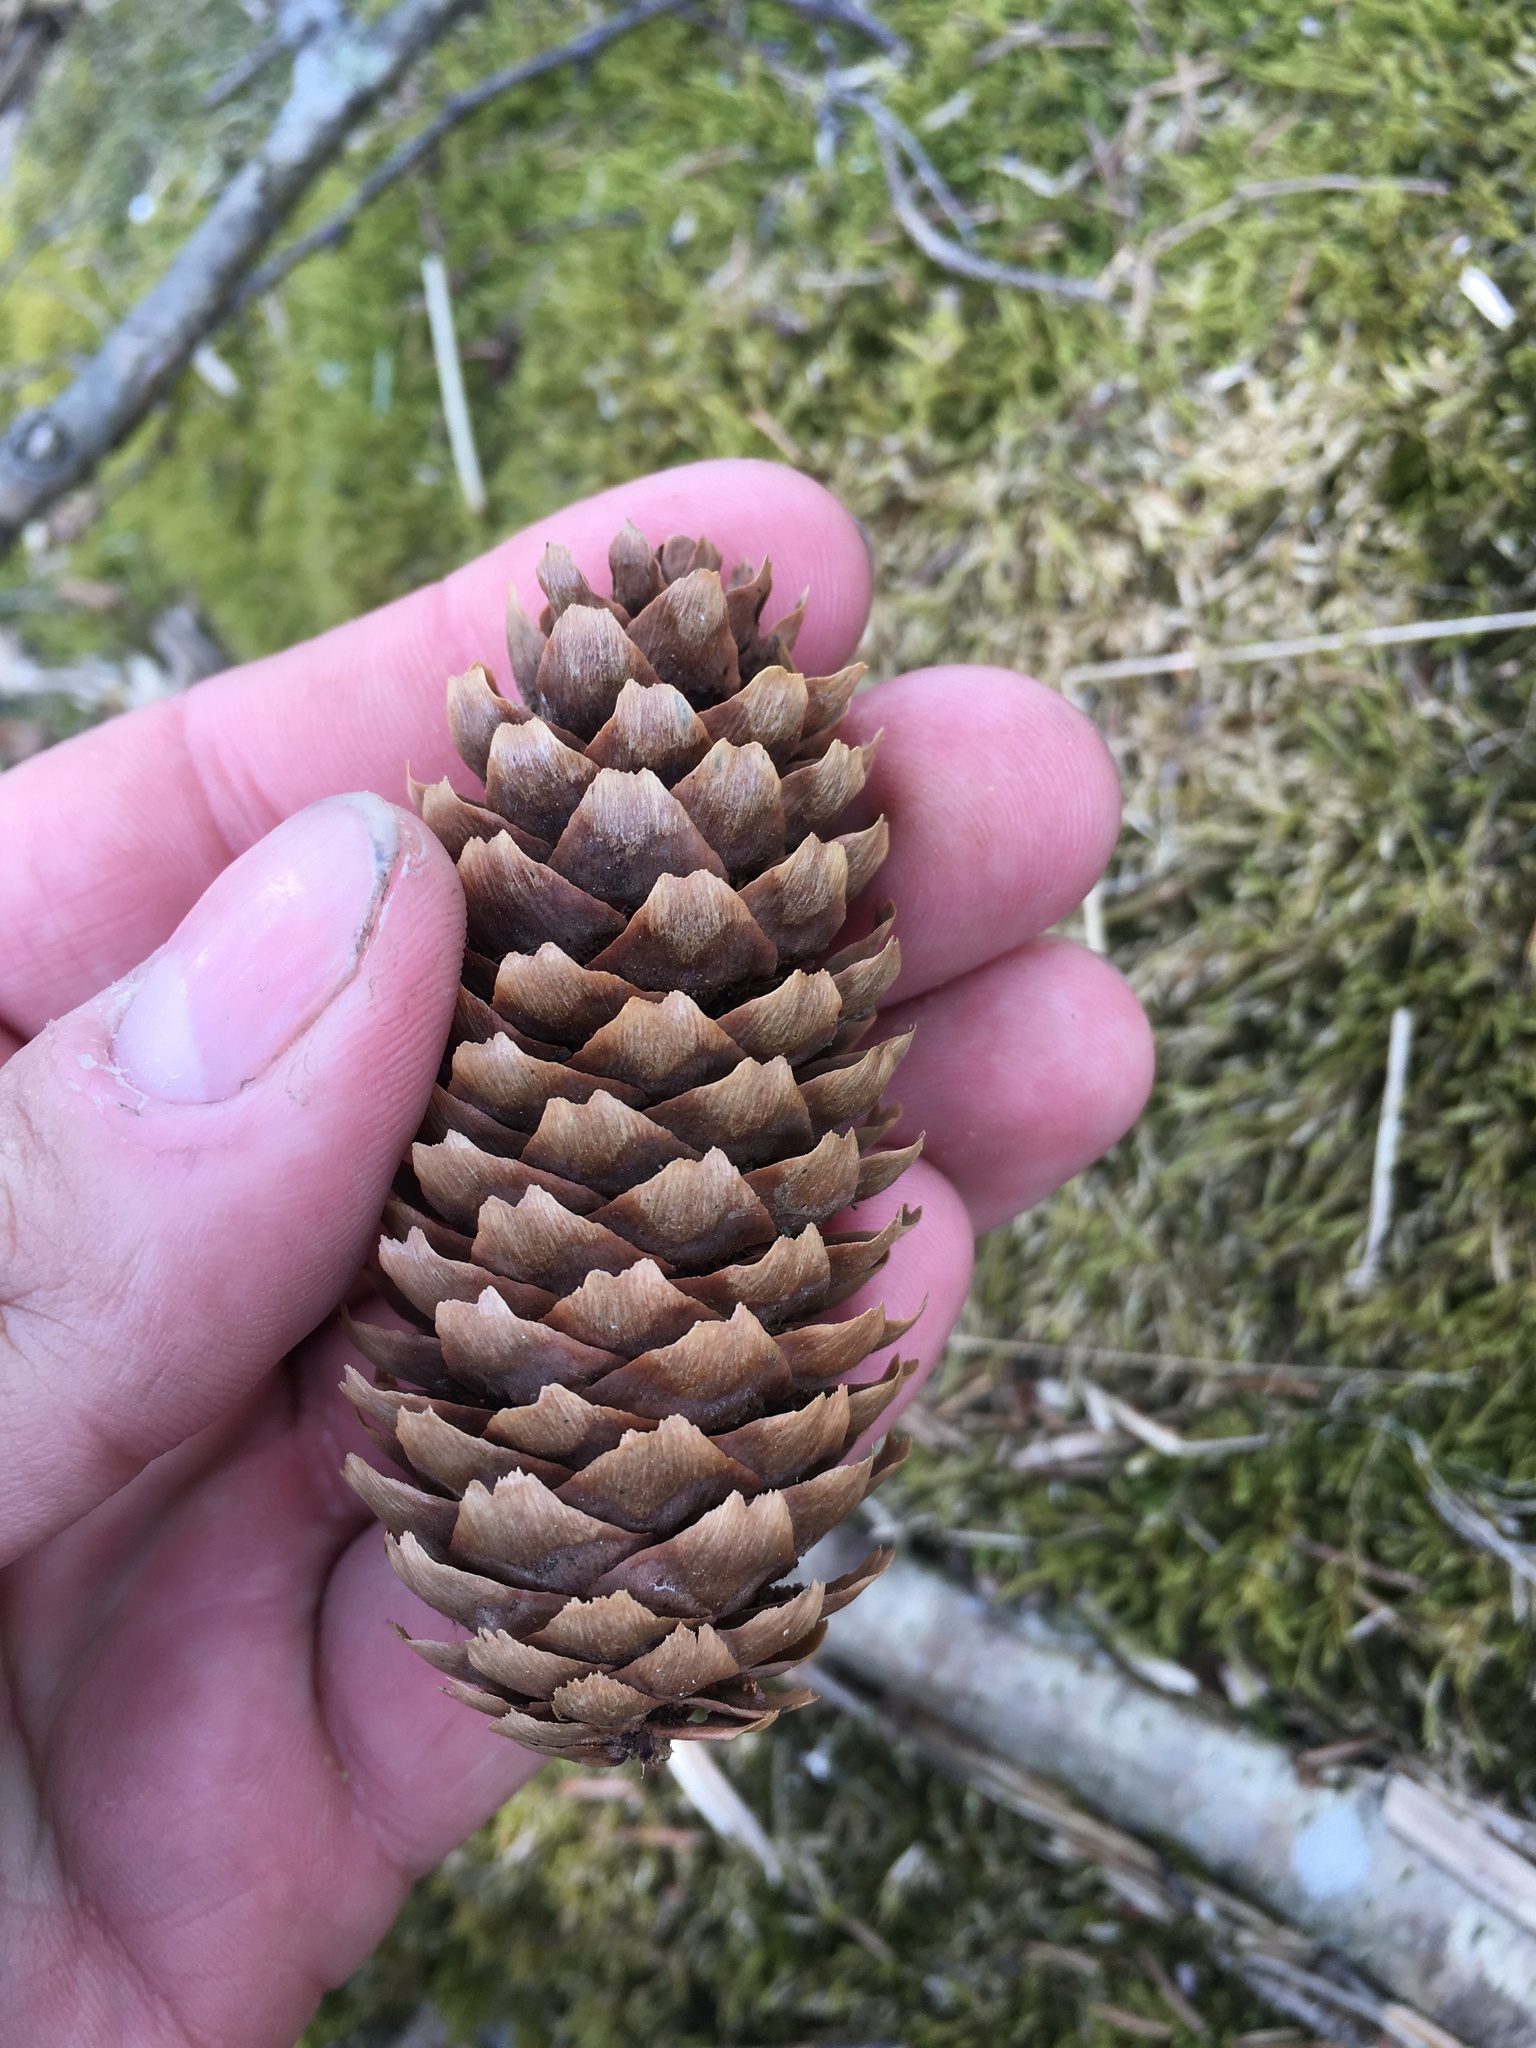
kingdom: Plantae
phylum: Tracheophyta
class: Pinopsida
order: Pinales
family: Pinaceae
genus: Picea
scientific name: Picea abies
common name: Norway spruce
